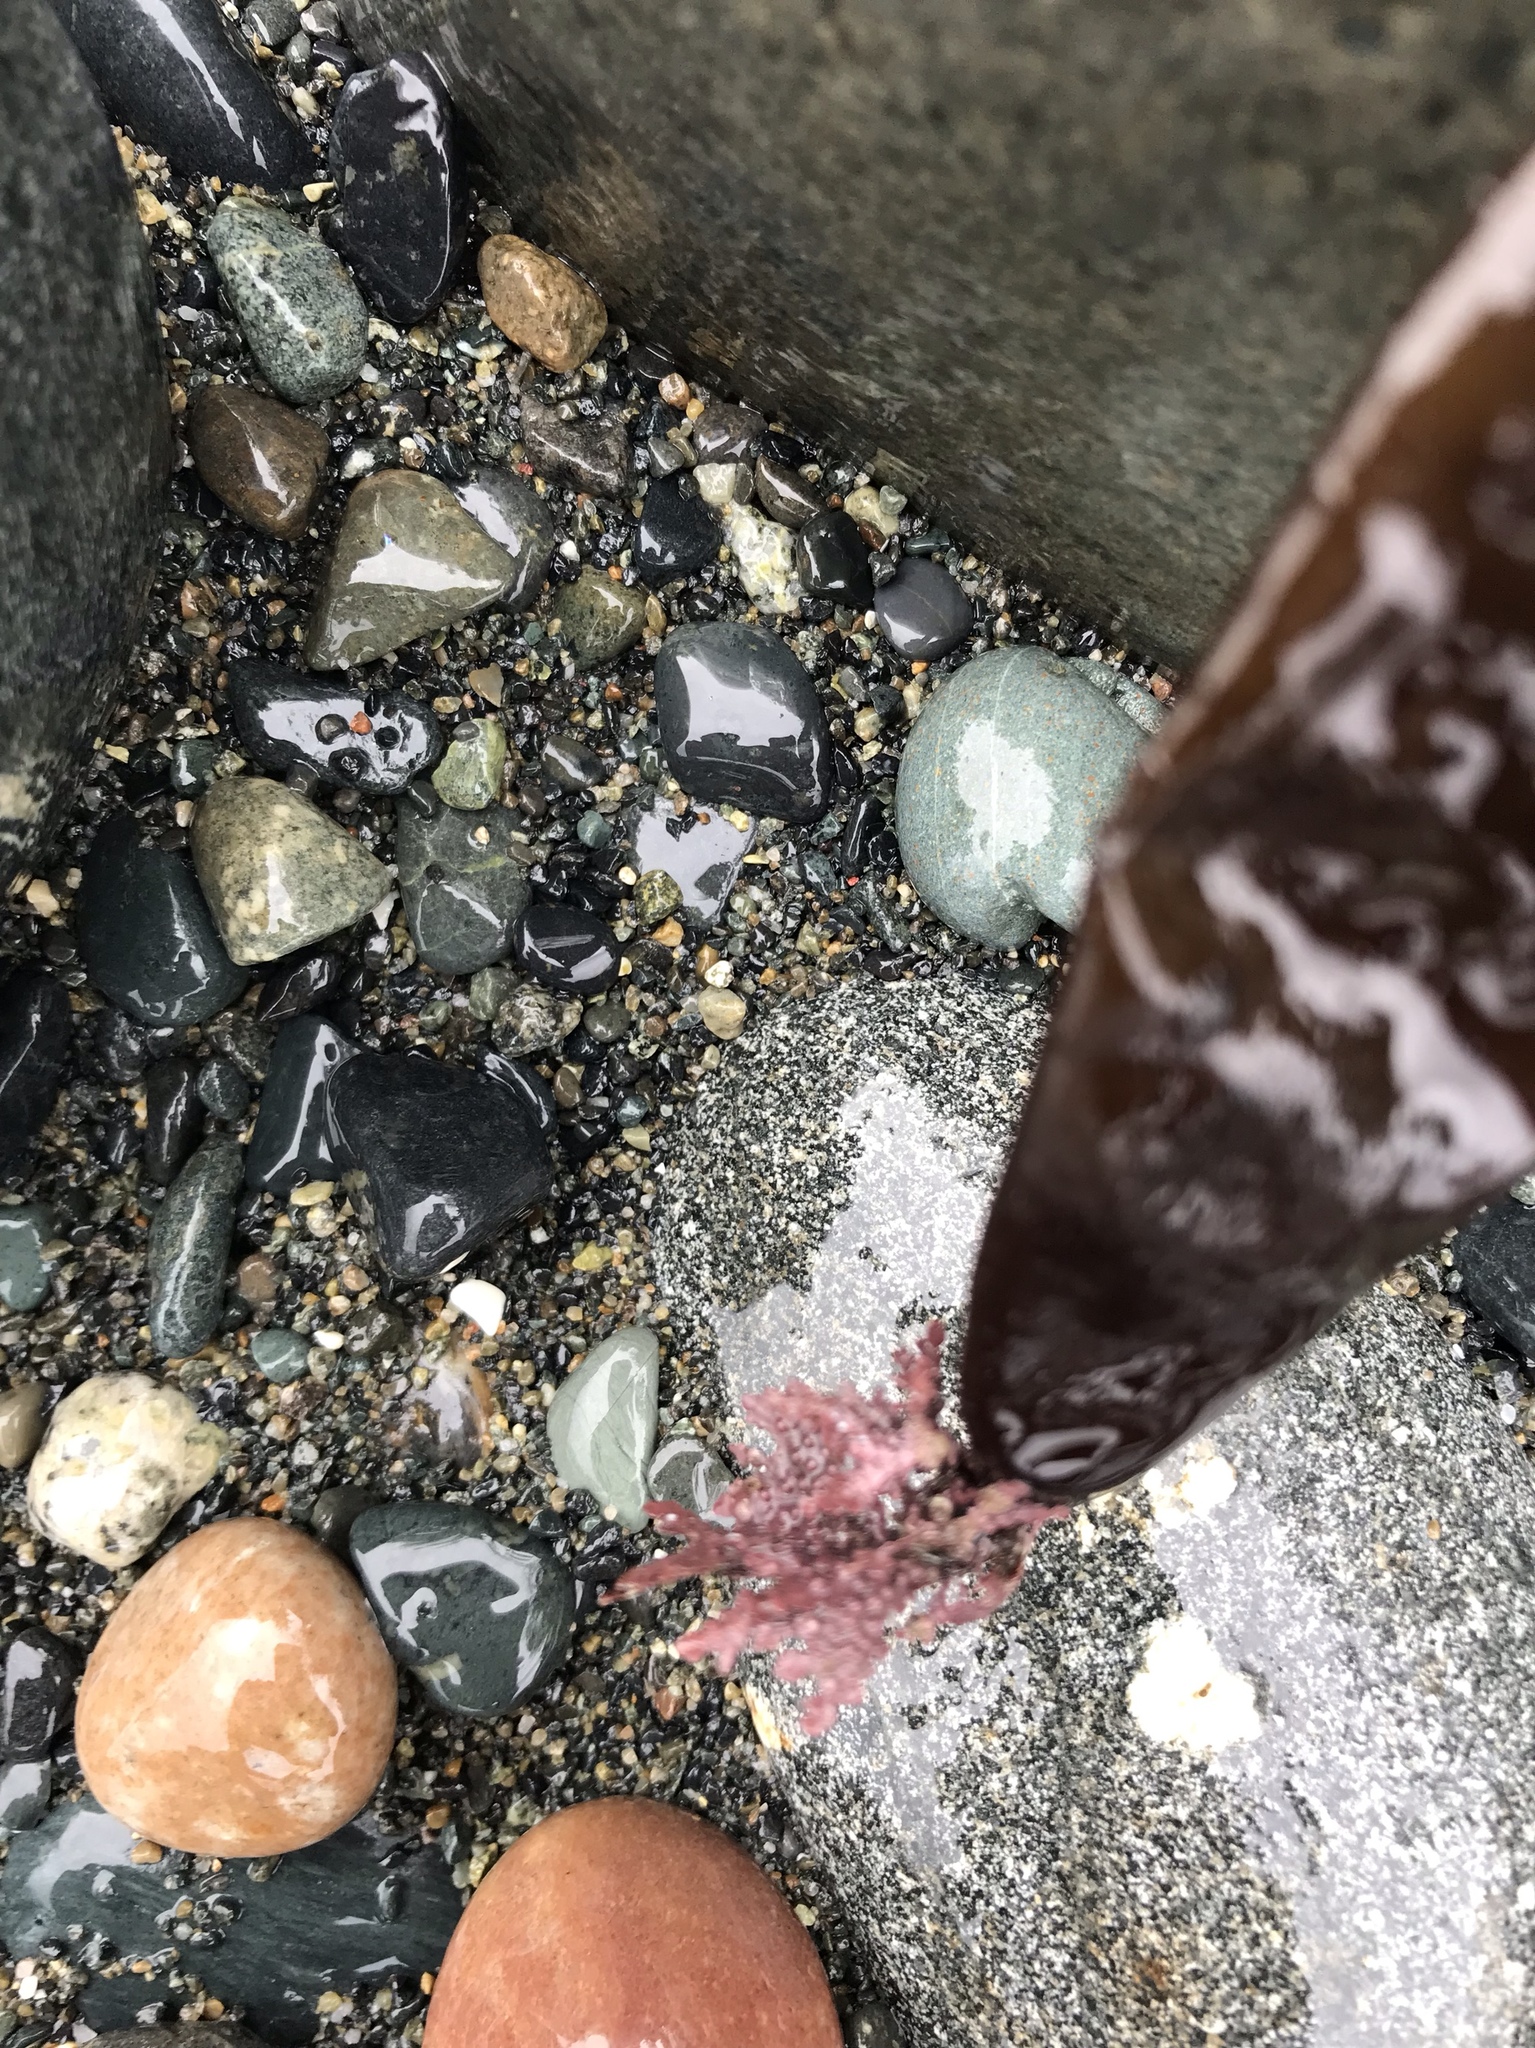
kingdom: Plantae
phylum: Rhodophyta
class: Florideophyceae
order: Palmariales
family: Palmariaceae
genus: Halosaccion
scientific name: Halosaccion glandiforme
